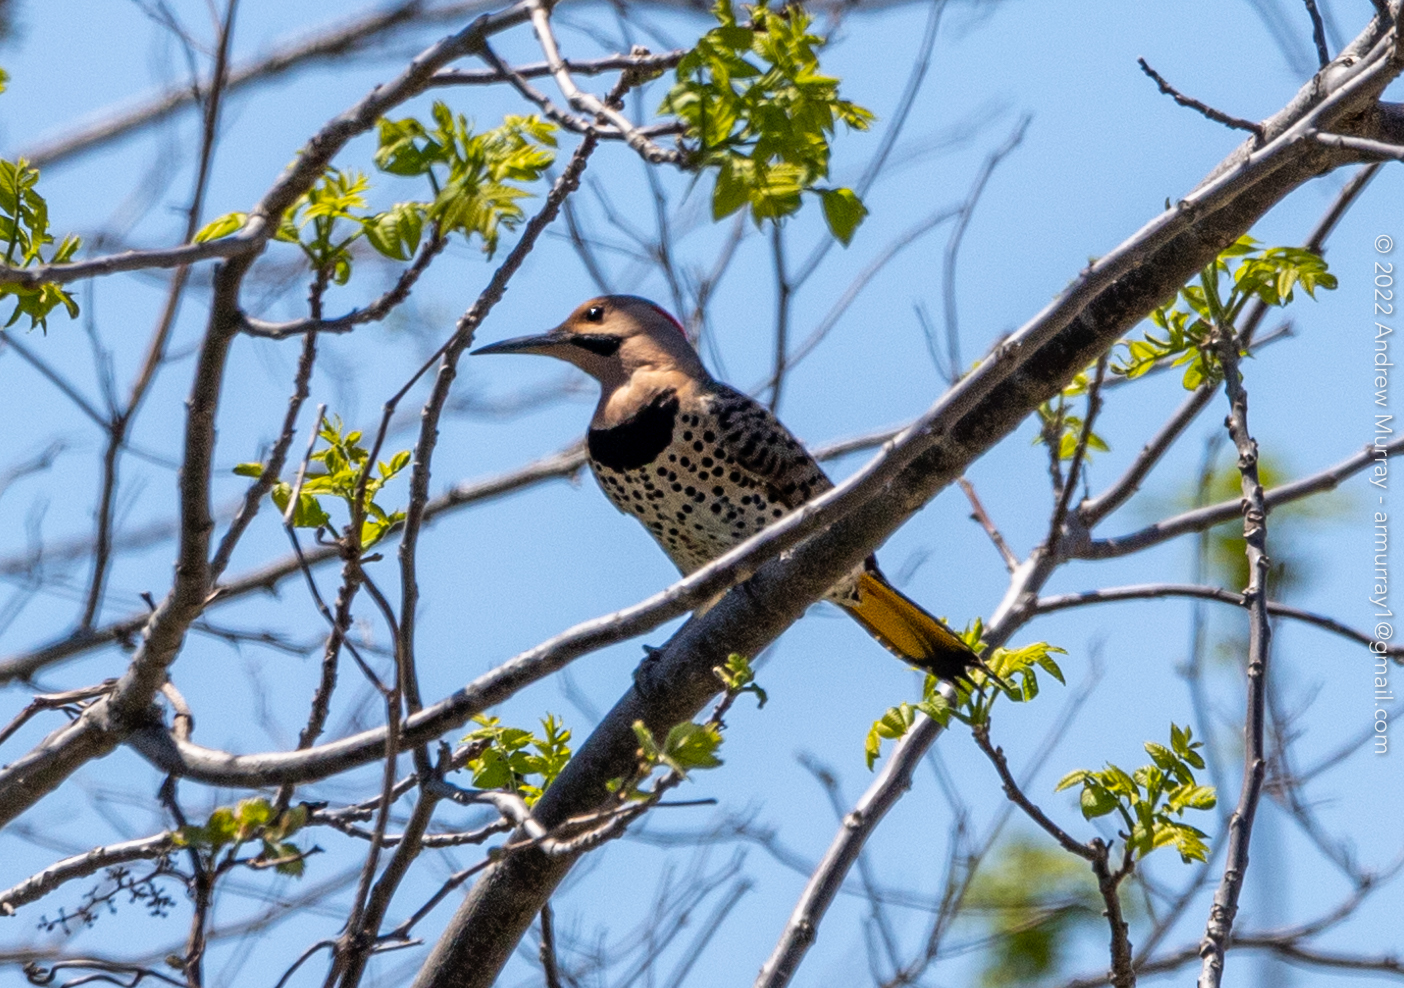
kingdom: Animalia
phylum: Chordata
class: Aves
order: Piciformes
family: Picidae
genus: Colaptes
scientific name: Colaptes auratus
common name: Northern flicker
